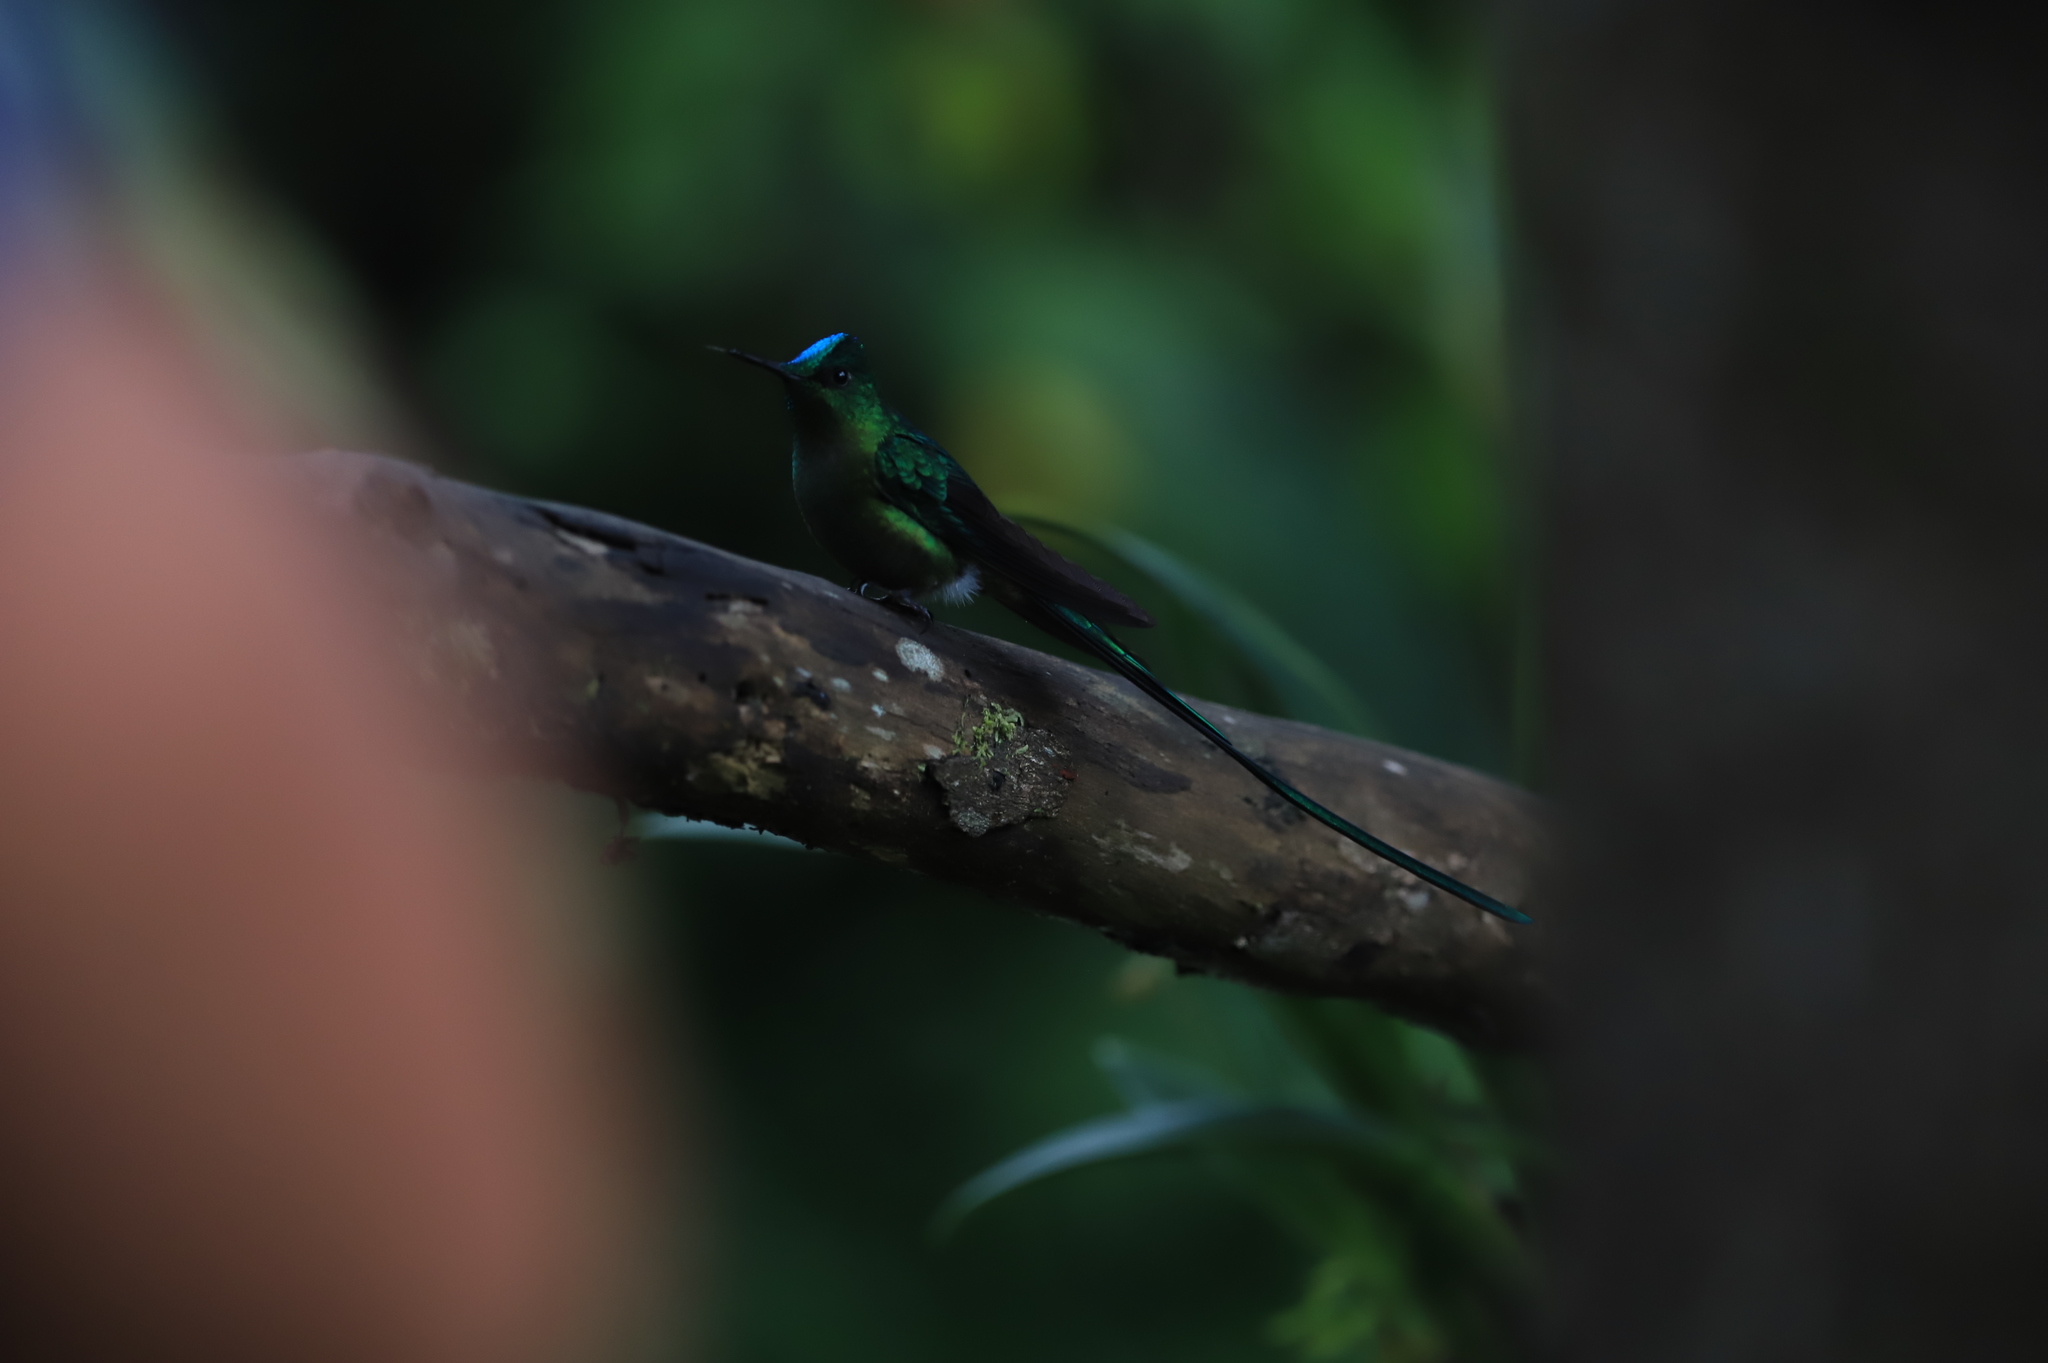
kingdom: Animalia
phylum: Chordata
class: Aves
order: Apodiformes
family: Trochilidae
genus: Aglaiocercus
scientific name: Aglaiocercus kingii
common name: Long-tailed sylph
